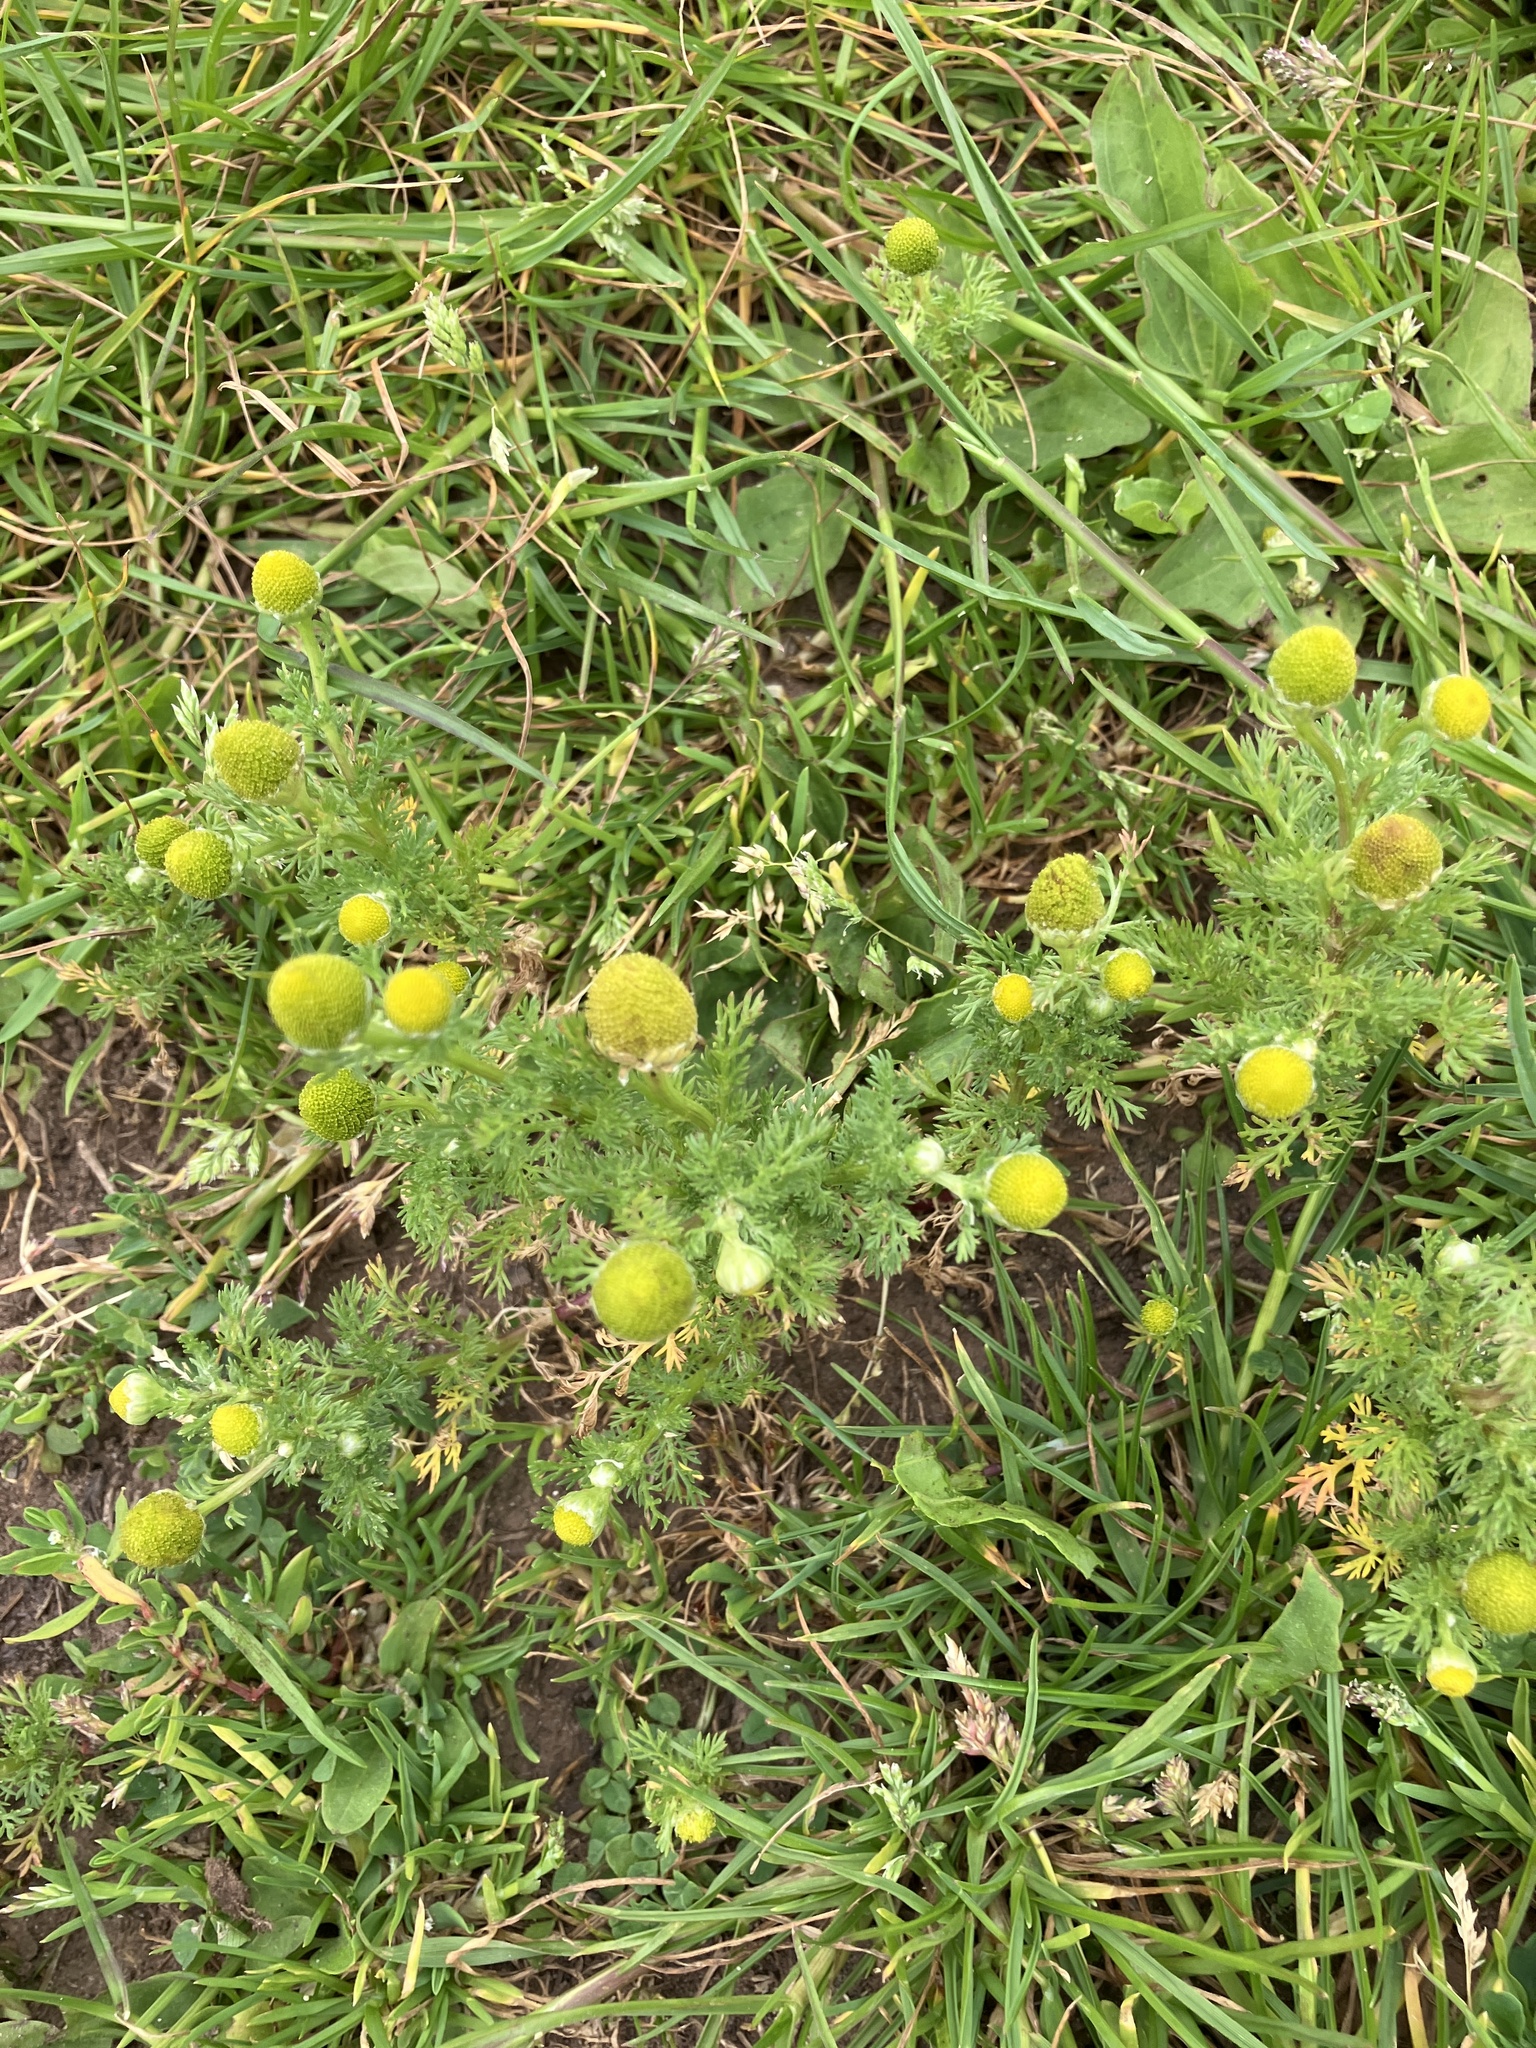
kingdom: Plantae
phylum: Tracheophyta
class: Magnoliopsida
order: Asterales
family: Asteraceae
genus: Matricaria
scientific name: Matricaria discoidea
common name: Disc mayweed
